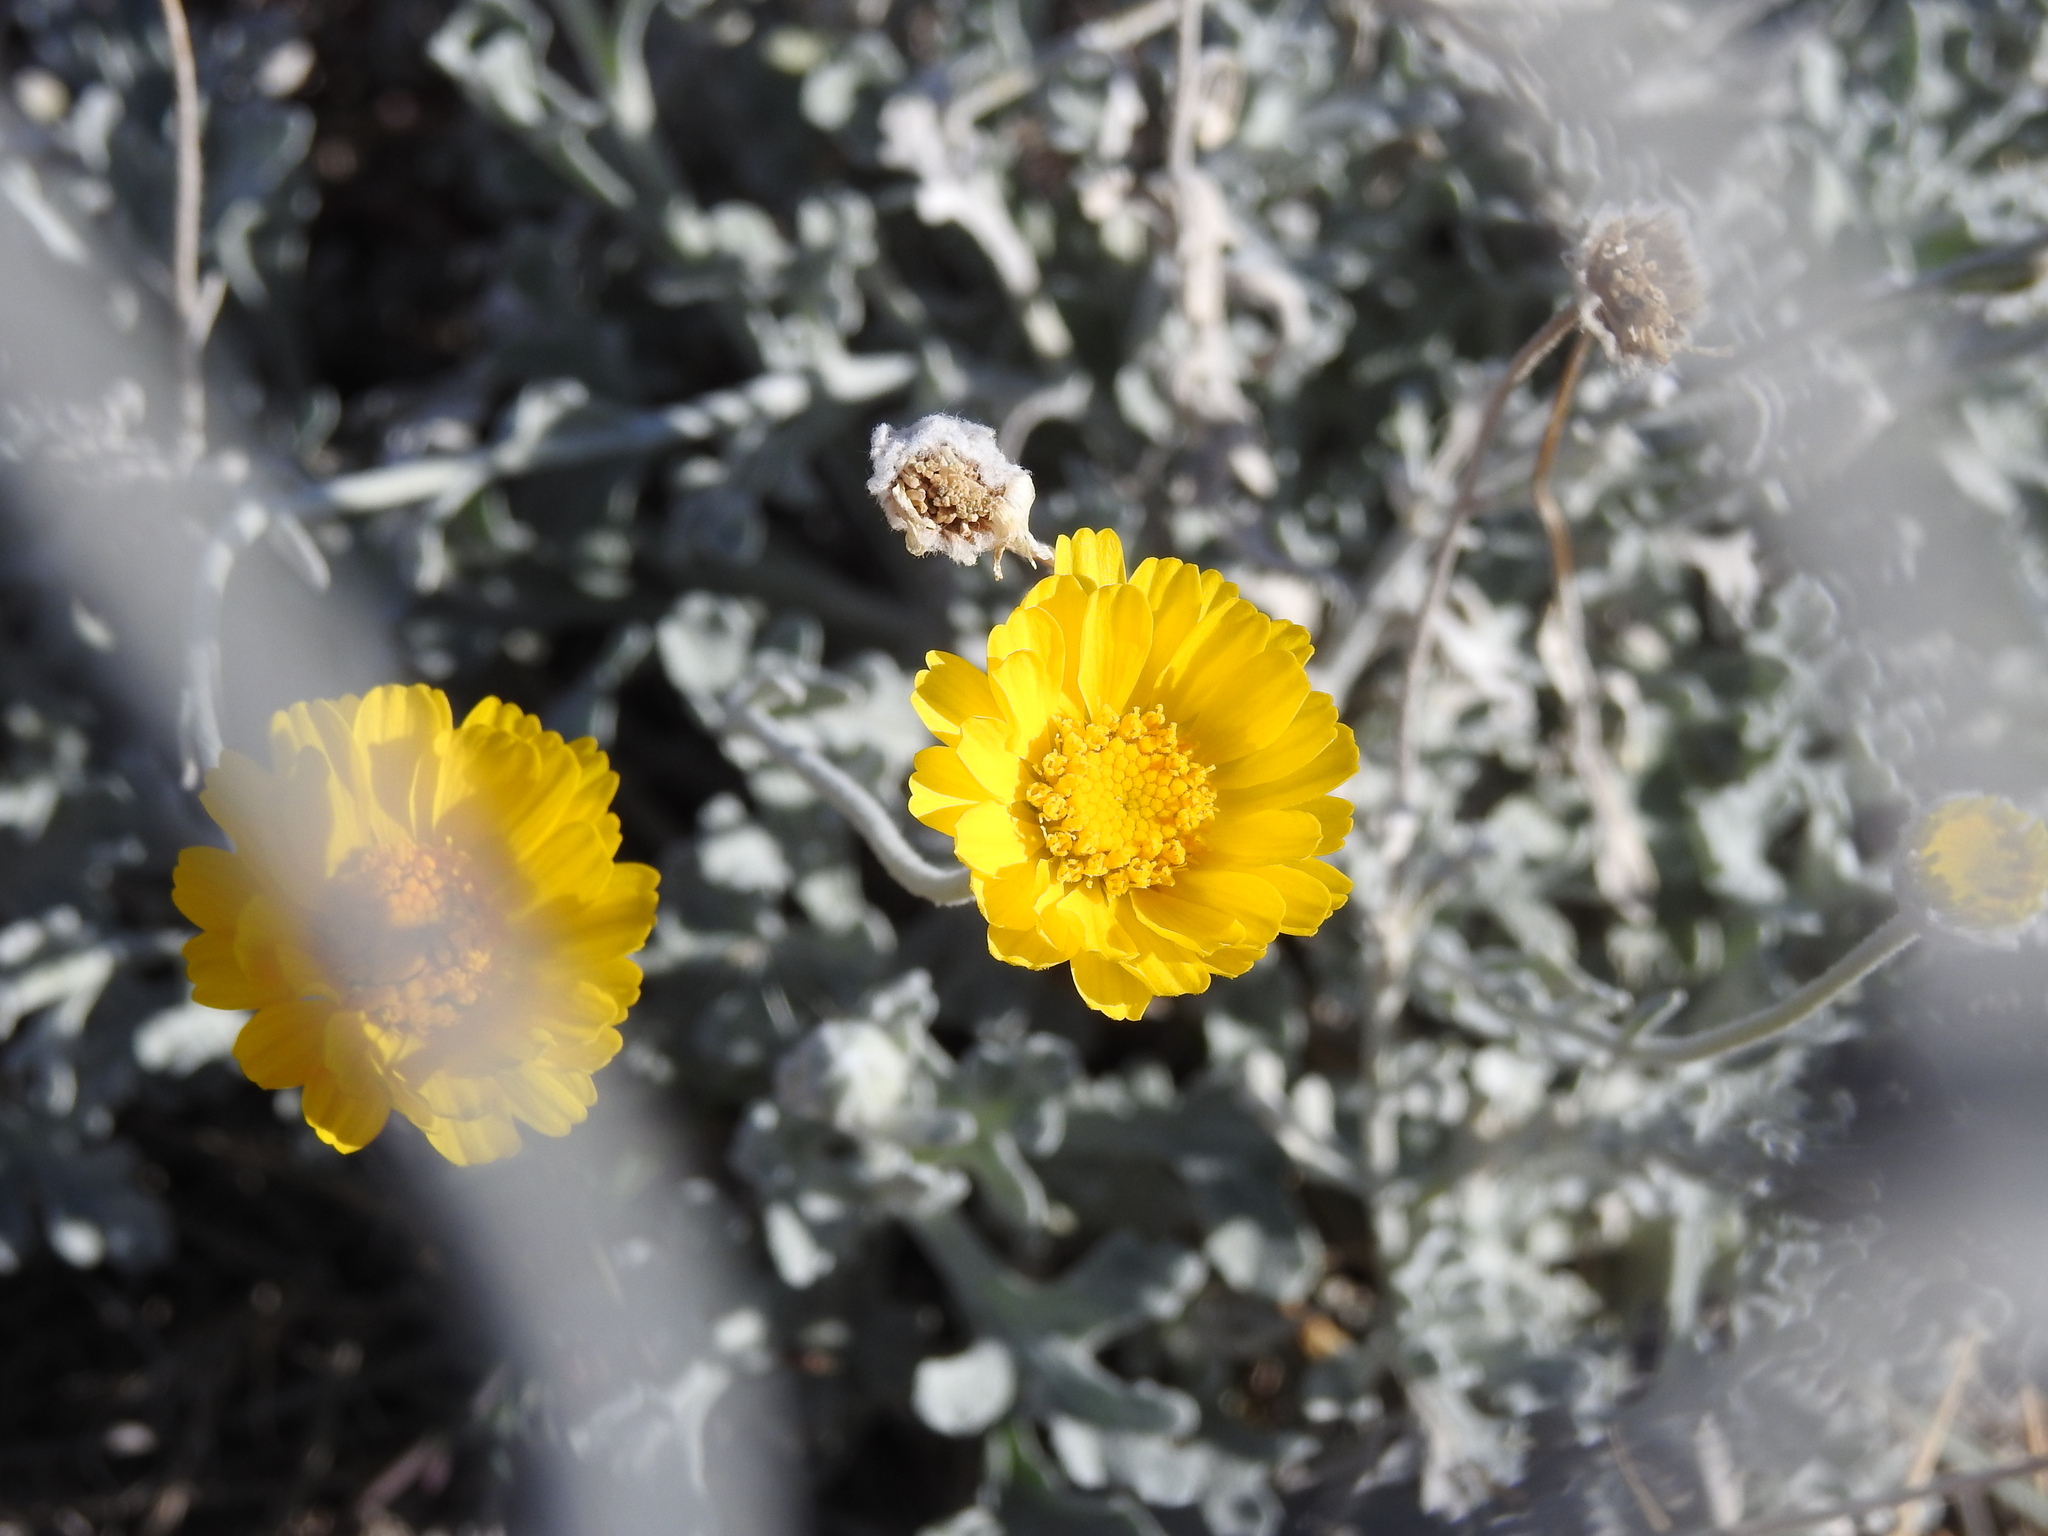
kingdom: Plantae
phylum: Tracheophyta
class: Magnoliopsida
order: Asterales
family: Asteraceae
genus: Baileya
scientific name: Baileya multiradiata
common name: Desert-marigold
